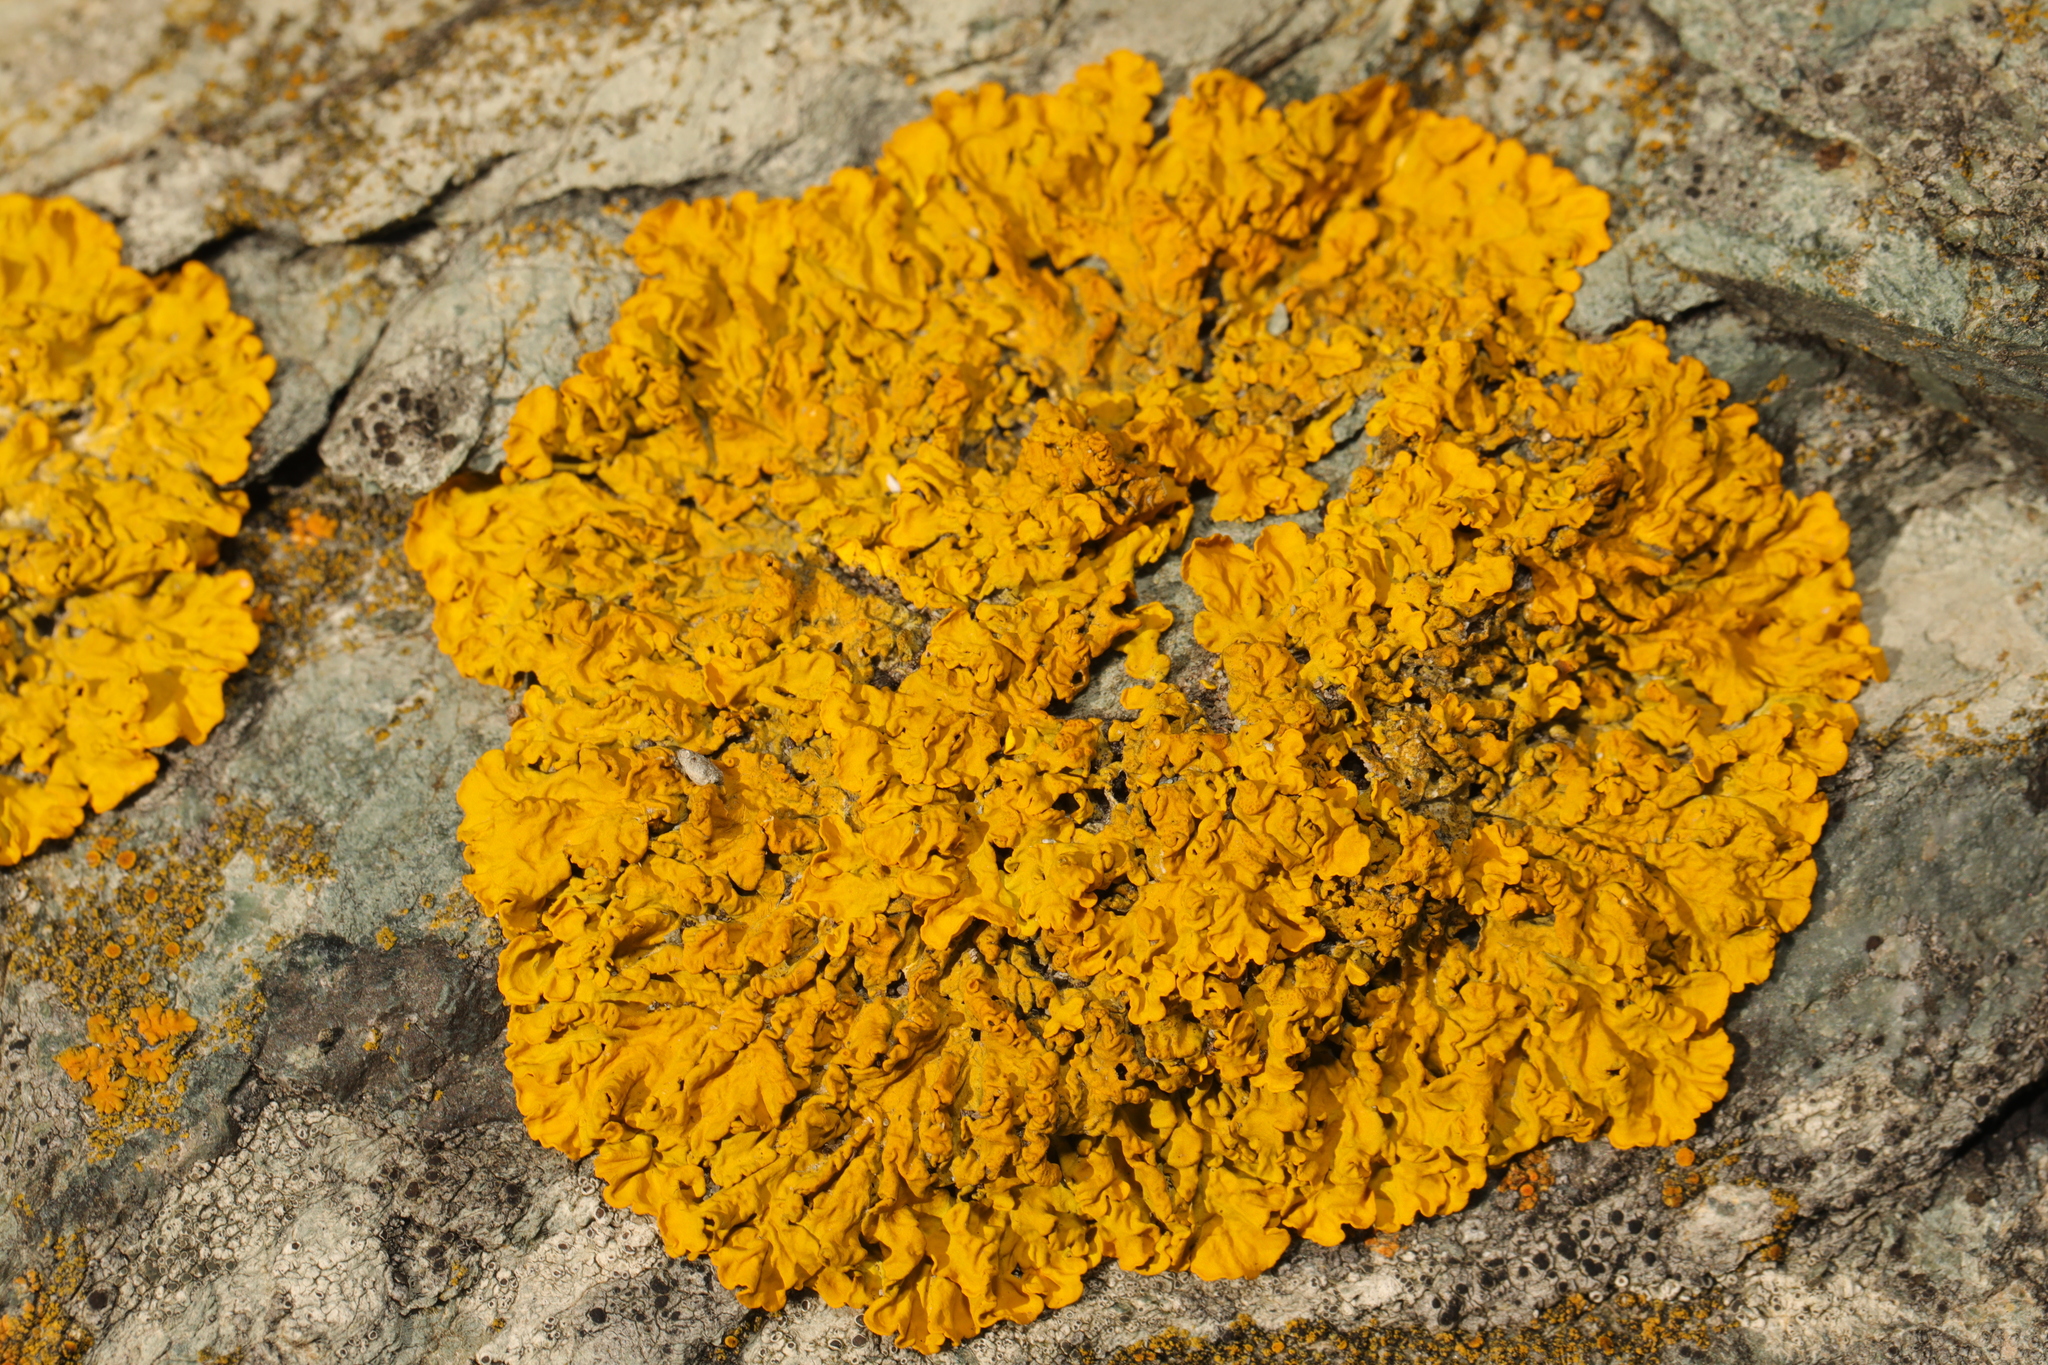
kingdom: Fungi
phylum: Ascomycota
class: Lecanoromycetes
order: Teloschistales
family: Teloschistaceae
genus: Xanthoria
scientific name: Xanthoria parietina
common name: Common orange lichen
